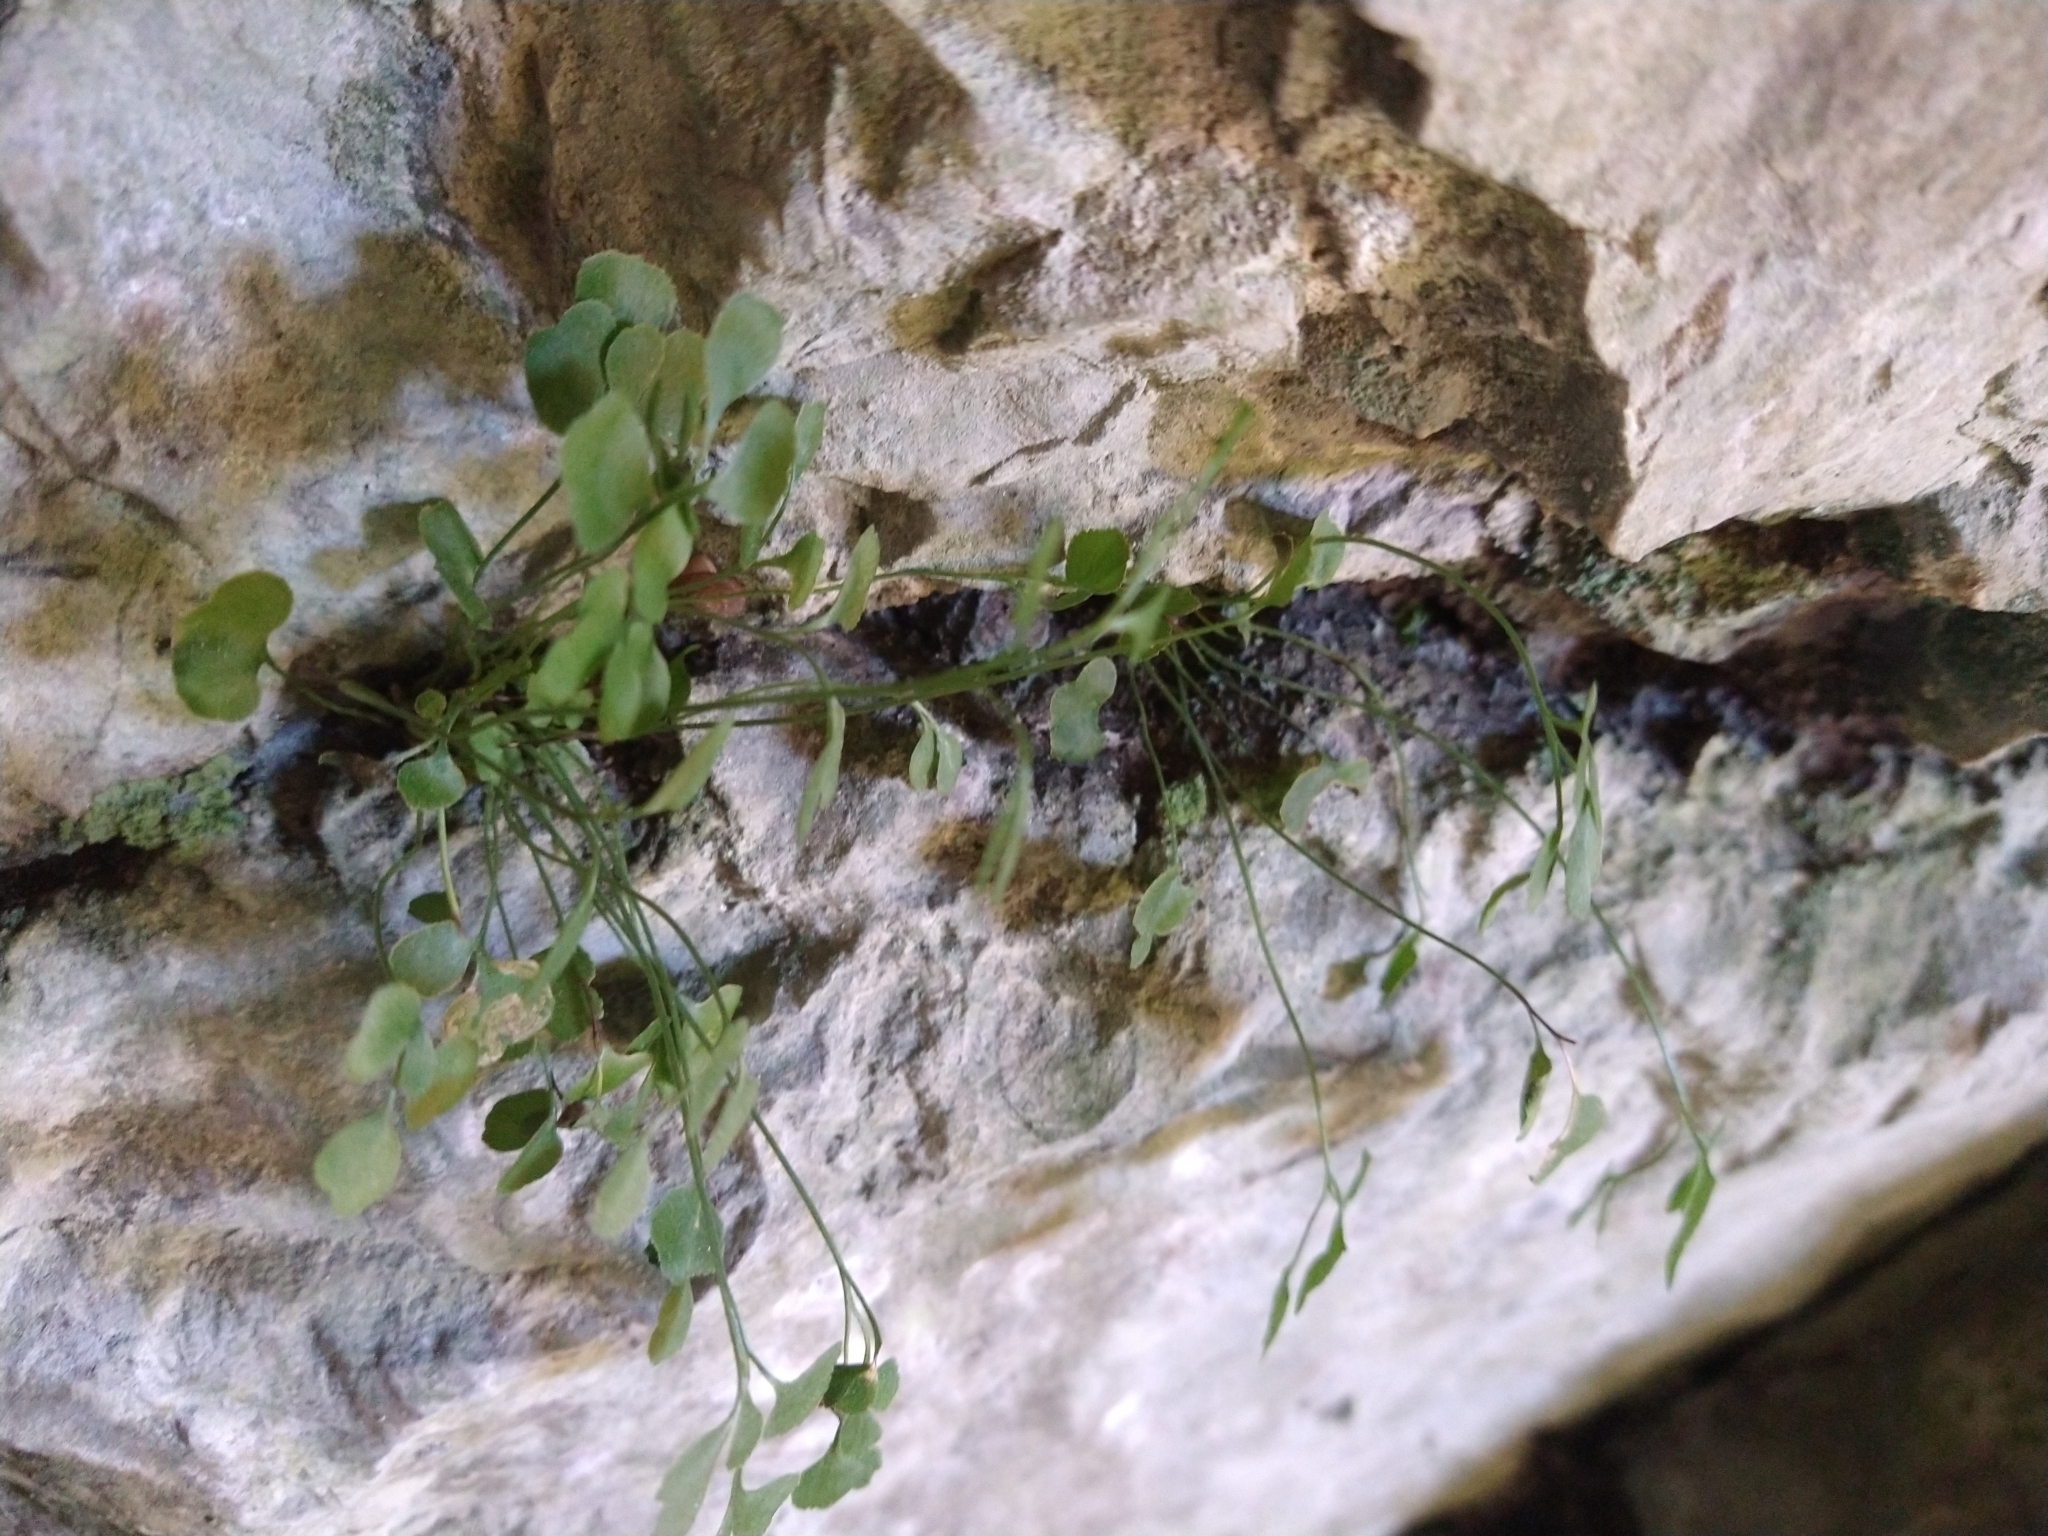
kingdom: Plantae
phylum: Tracheophyta
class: Polypodiopsida
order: Polypodiales
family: Aspleniaceae
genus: Asplenium
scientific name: Asplenium ruta-muraria
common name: Wall-rue
